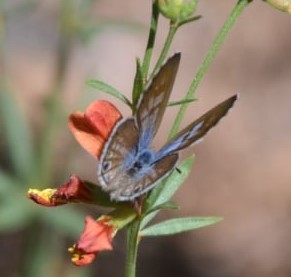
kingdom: Animalia
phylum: Arthropoda
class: Insecta
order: Lepidoptera
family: Lycaenidae
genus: Leptotes
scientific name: Leptotes marina
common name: Marine blue
